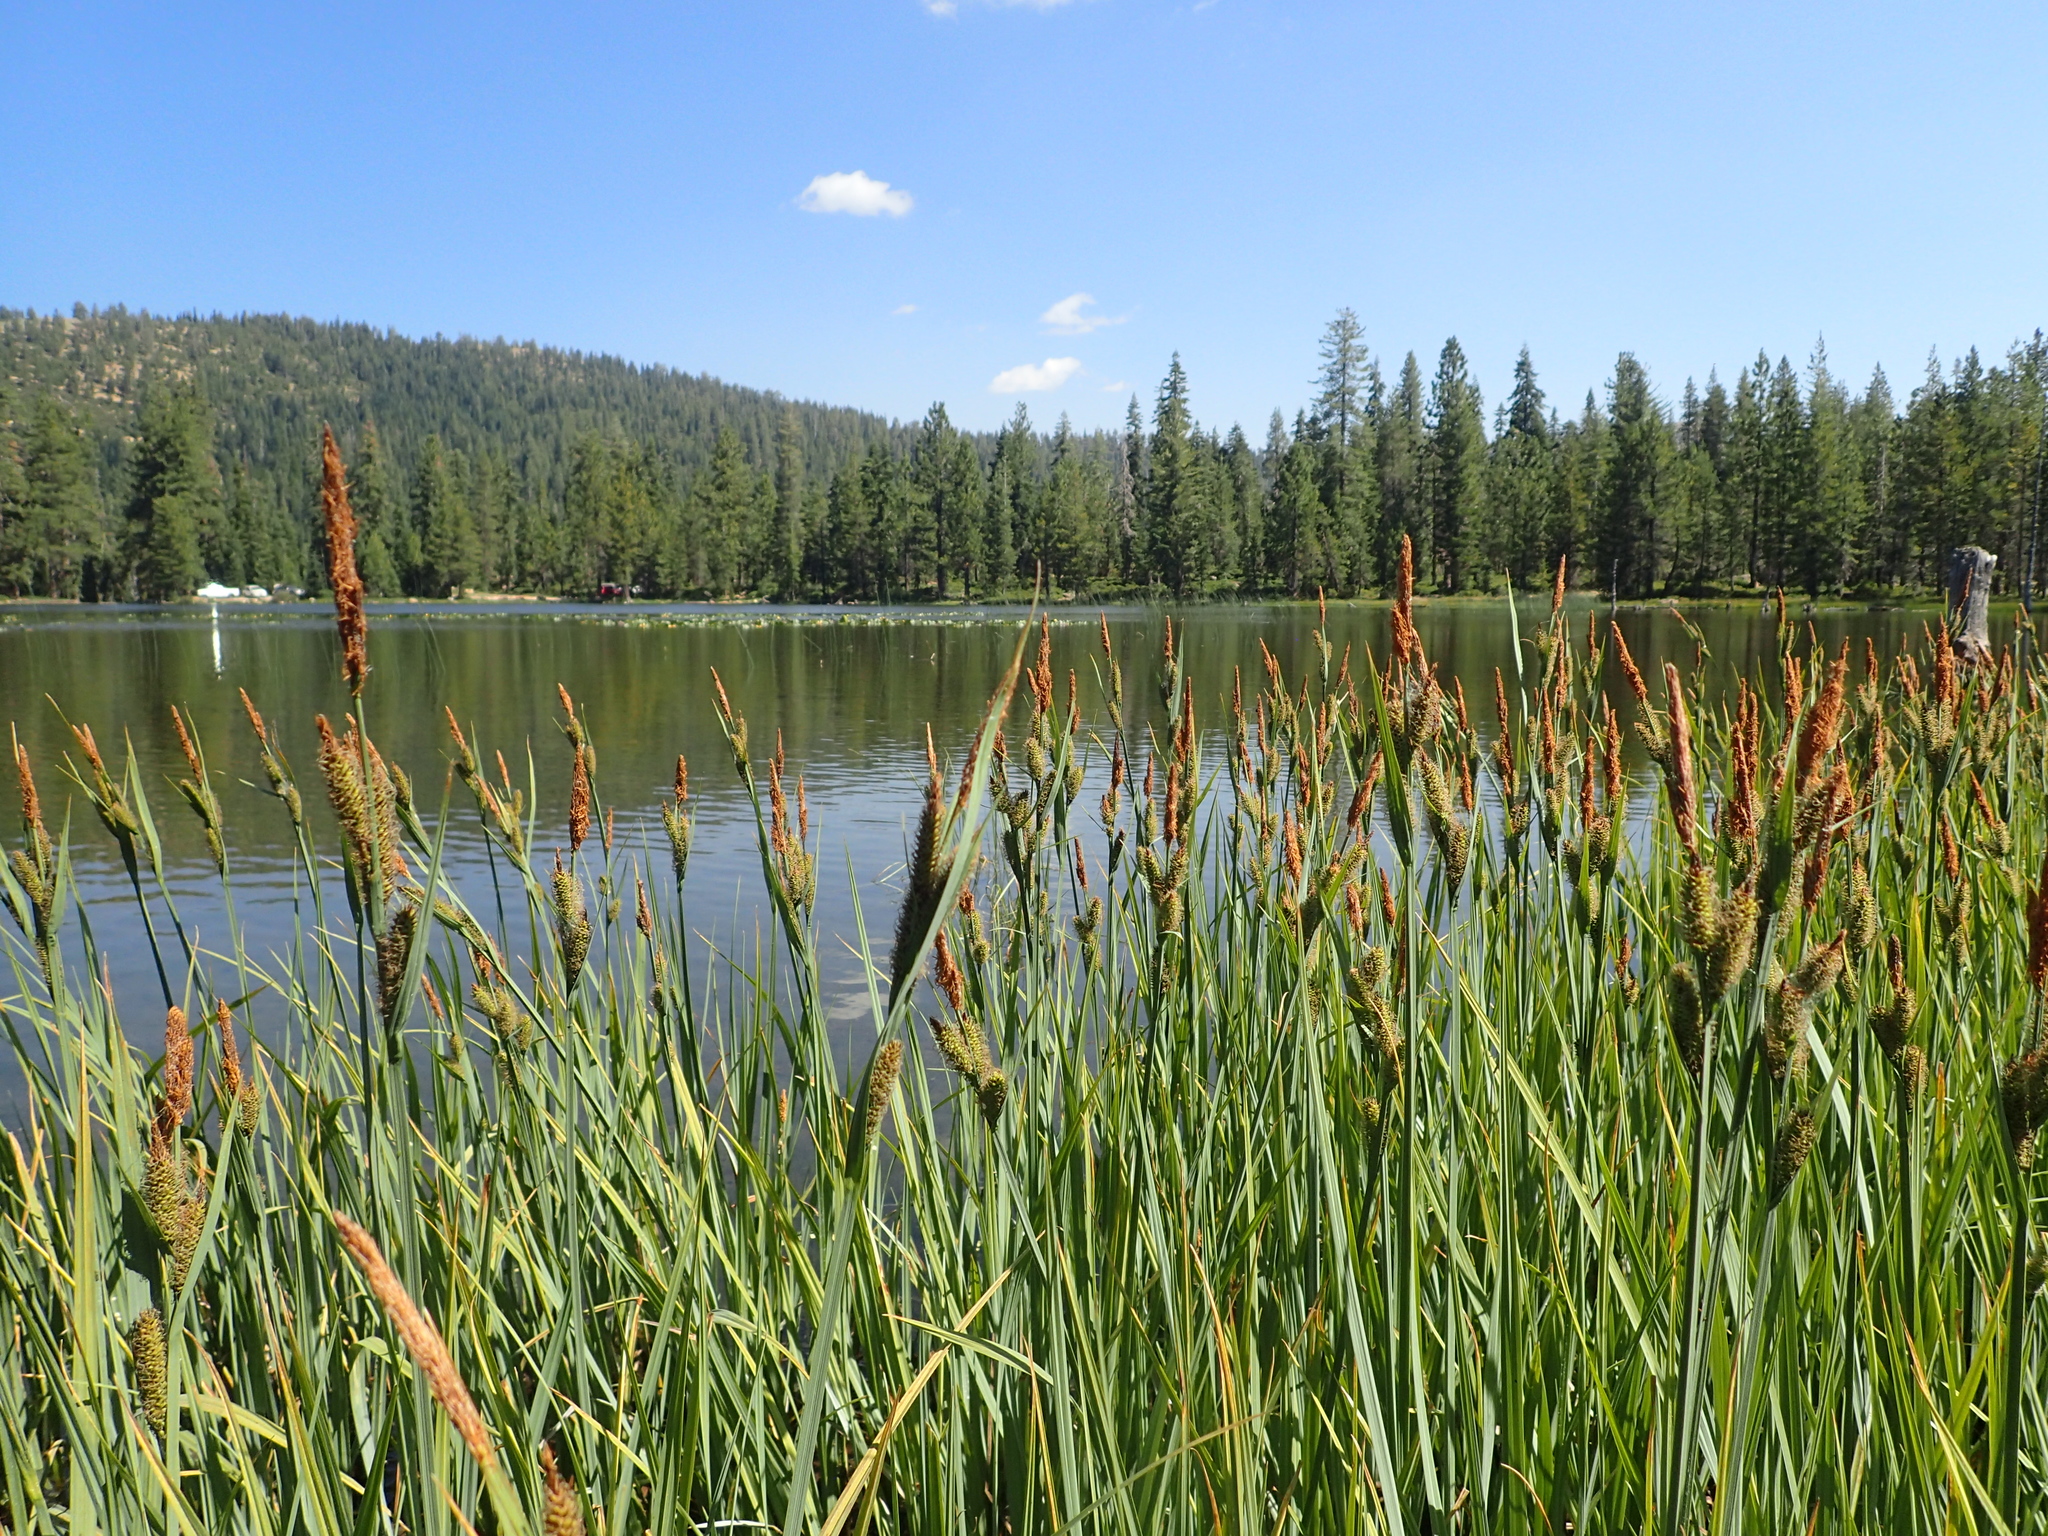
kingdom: Plantae
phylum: Tracheophyta
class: Liliopsida
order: Poales
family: Cyperaceae
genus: Carex
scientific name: Carex nebrascensis
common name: Nebraska sedge
